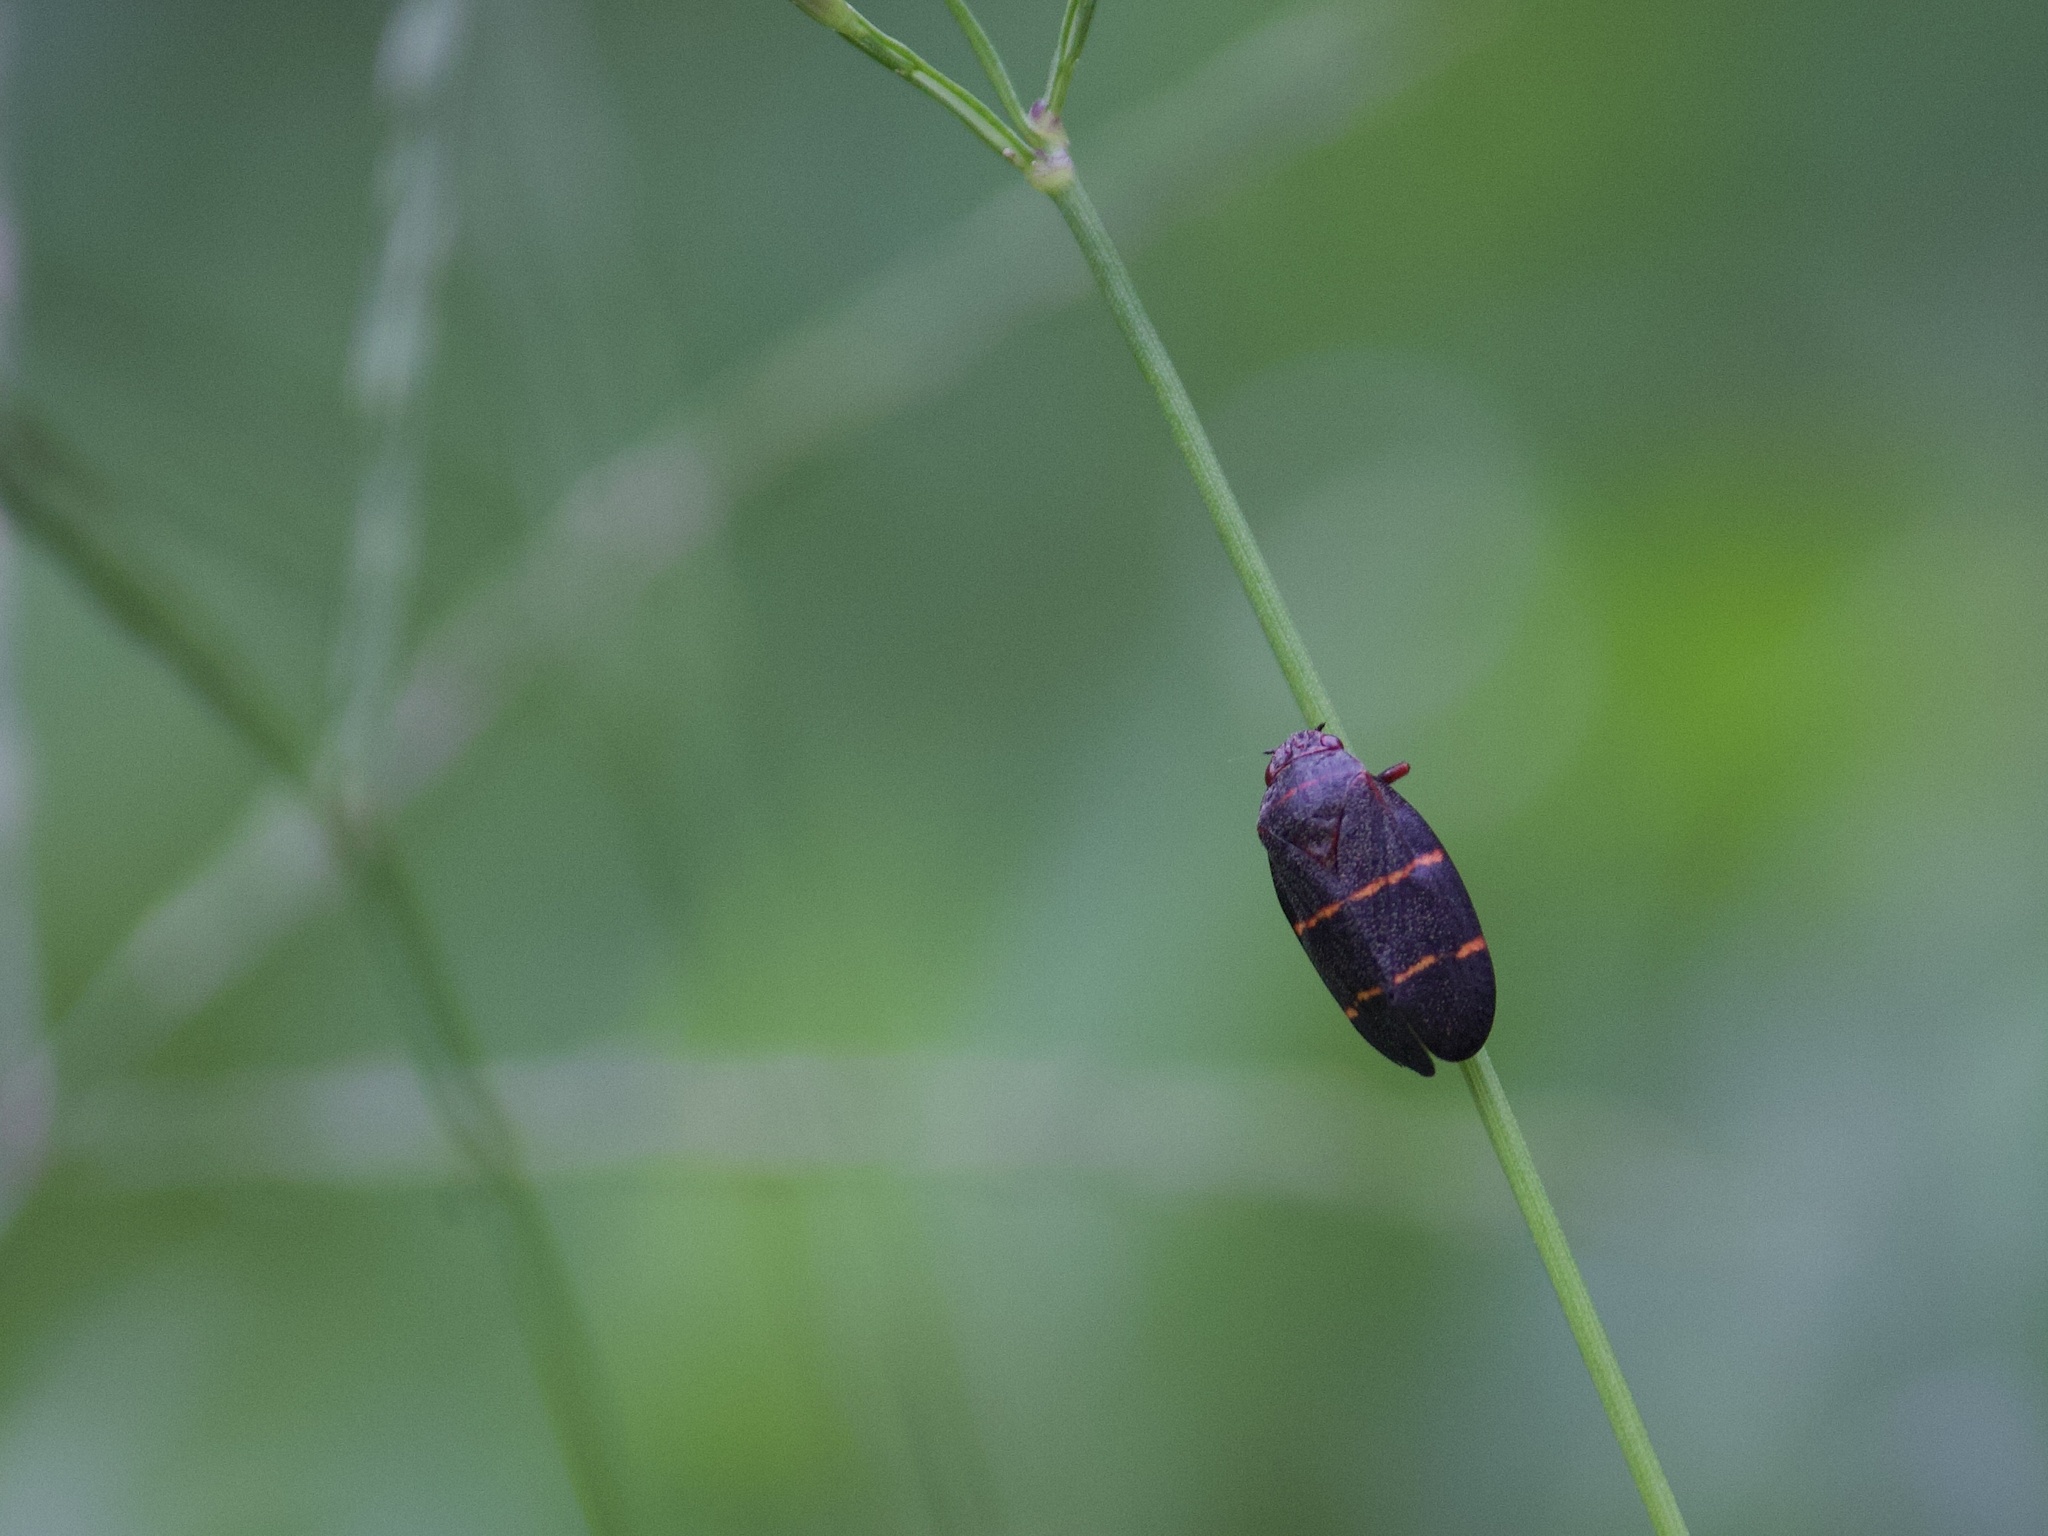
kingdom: Animalia
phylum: Arthropoda
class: Insecta
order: Hemiptera
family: Cercopidae
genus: Prosapia
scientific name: Prosapia bicincta
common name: Twolined spittlebug
